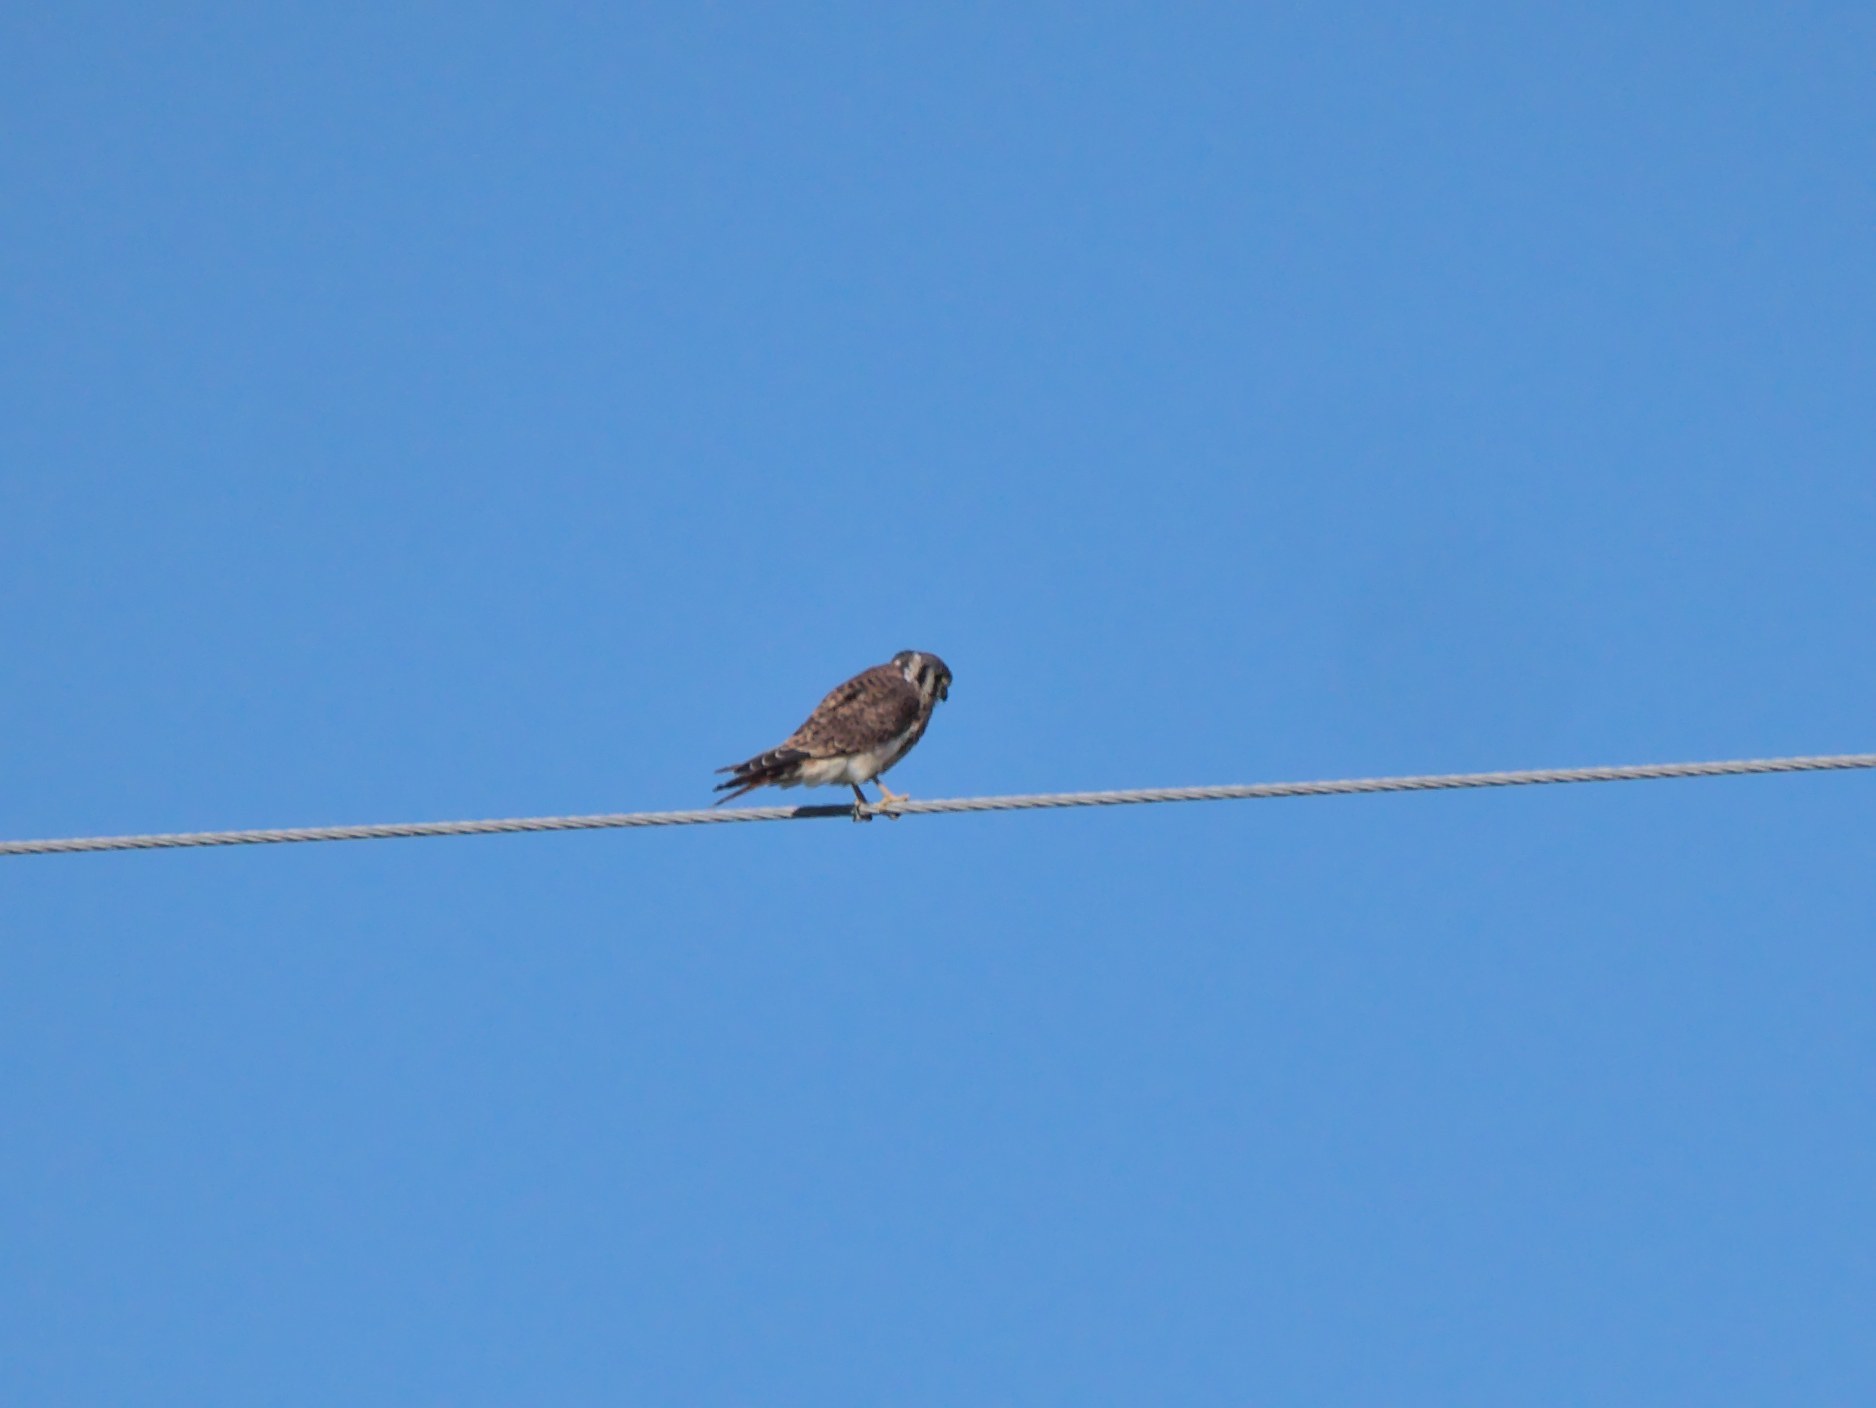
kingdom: Animalia
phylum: Chordata
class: Aves
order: Falconiformes
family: Falconidae
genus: Falco
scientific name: Falco sparverius
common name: American kestrel
